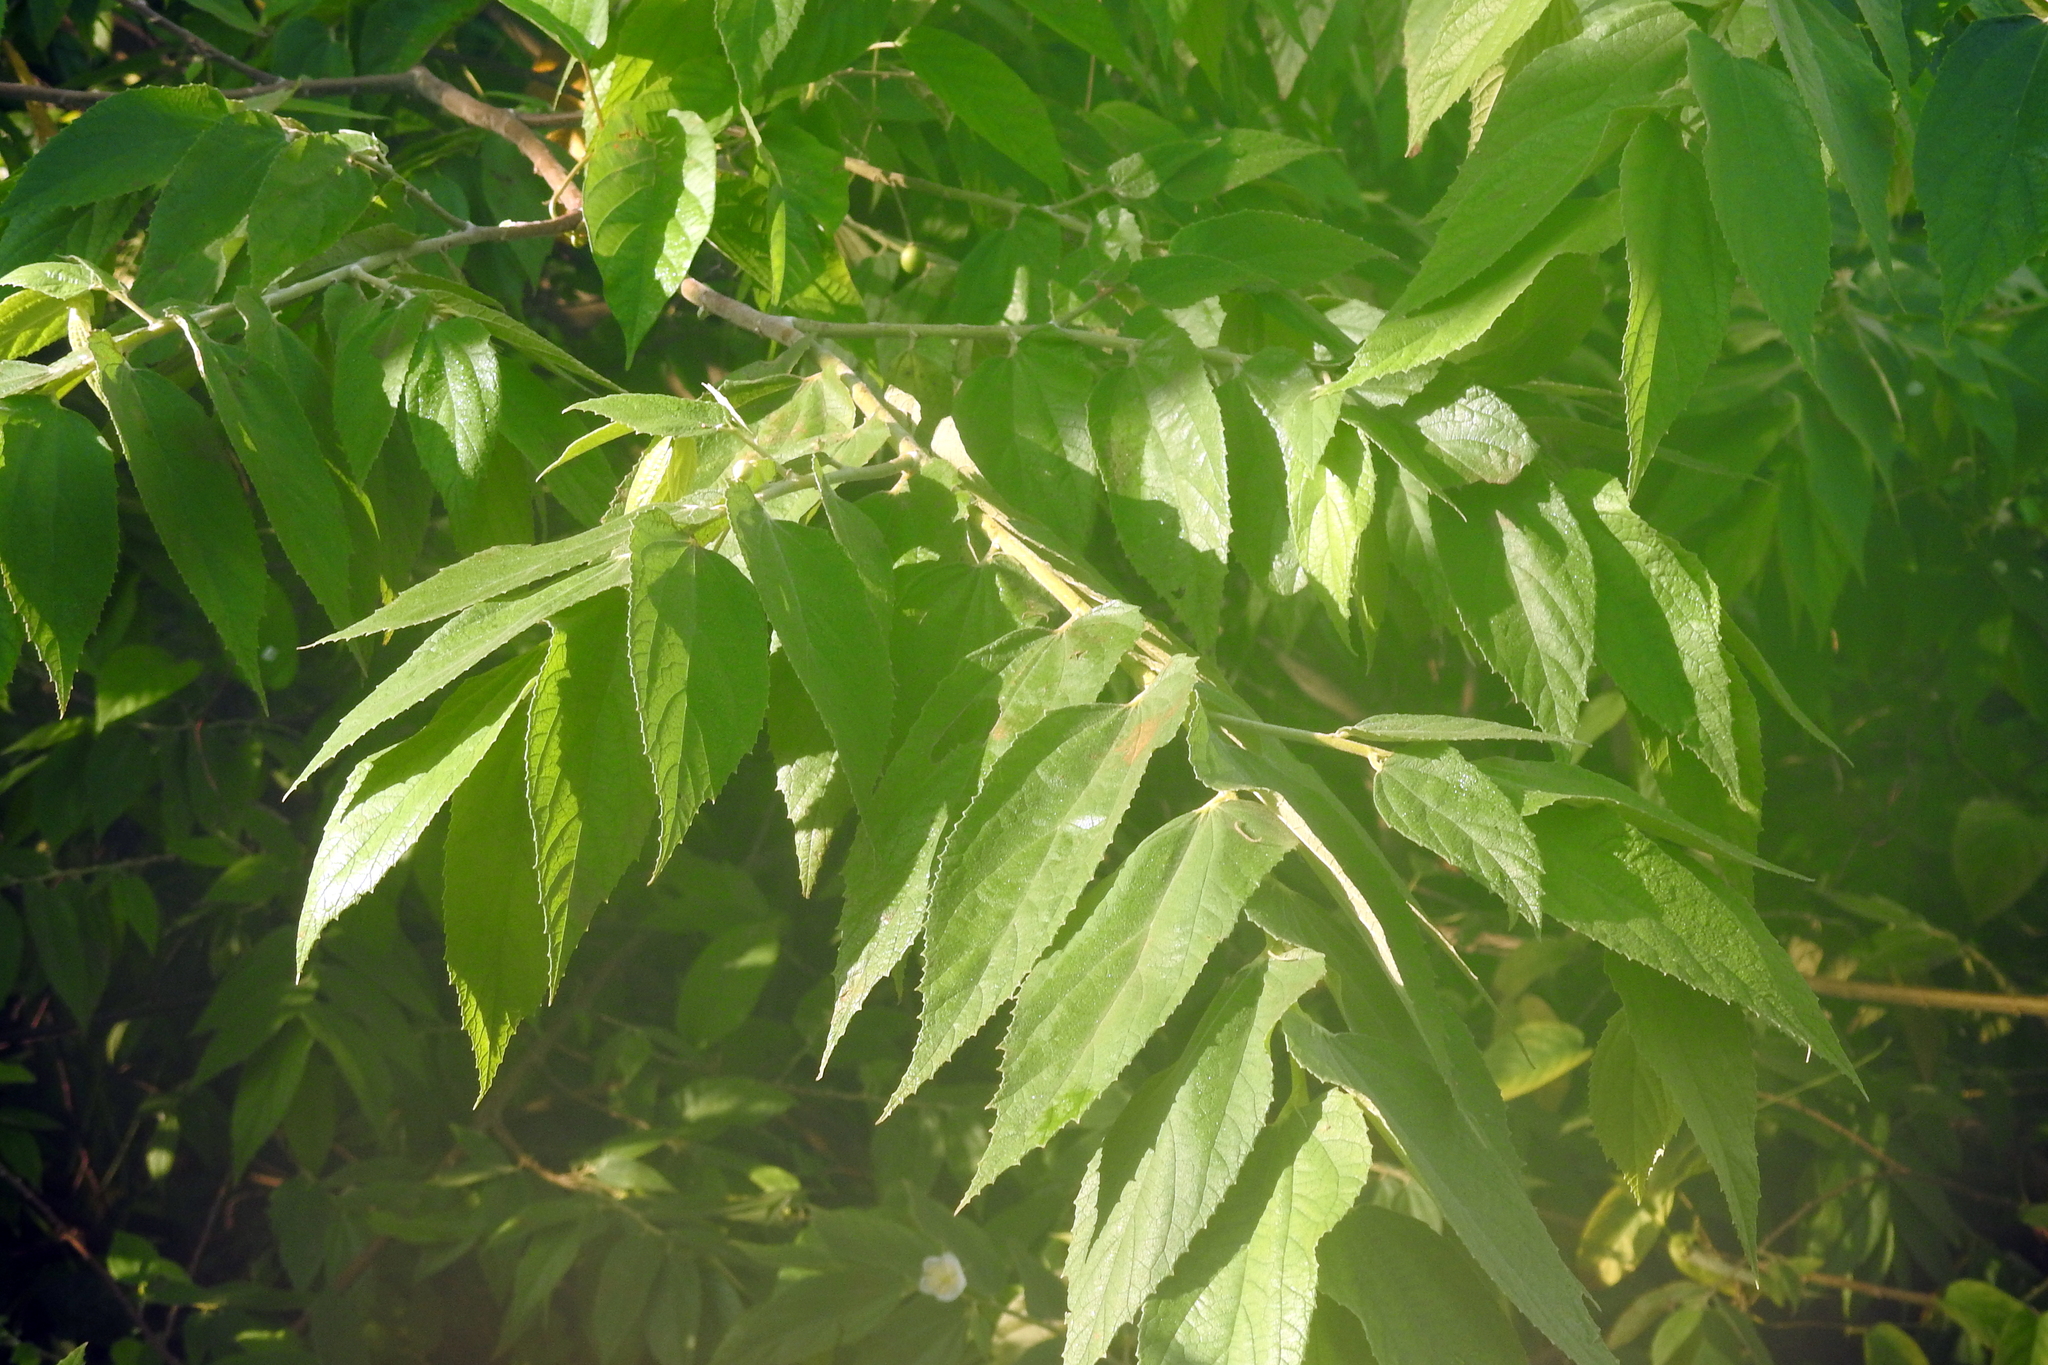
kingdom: Plantae
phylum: Tracheophyta
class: Magnoliopsida
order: Malvales
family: Muntingiaceae
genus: Muntingia
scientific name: Muntingia calabura
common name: Strawberrytree
